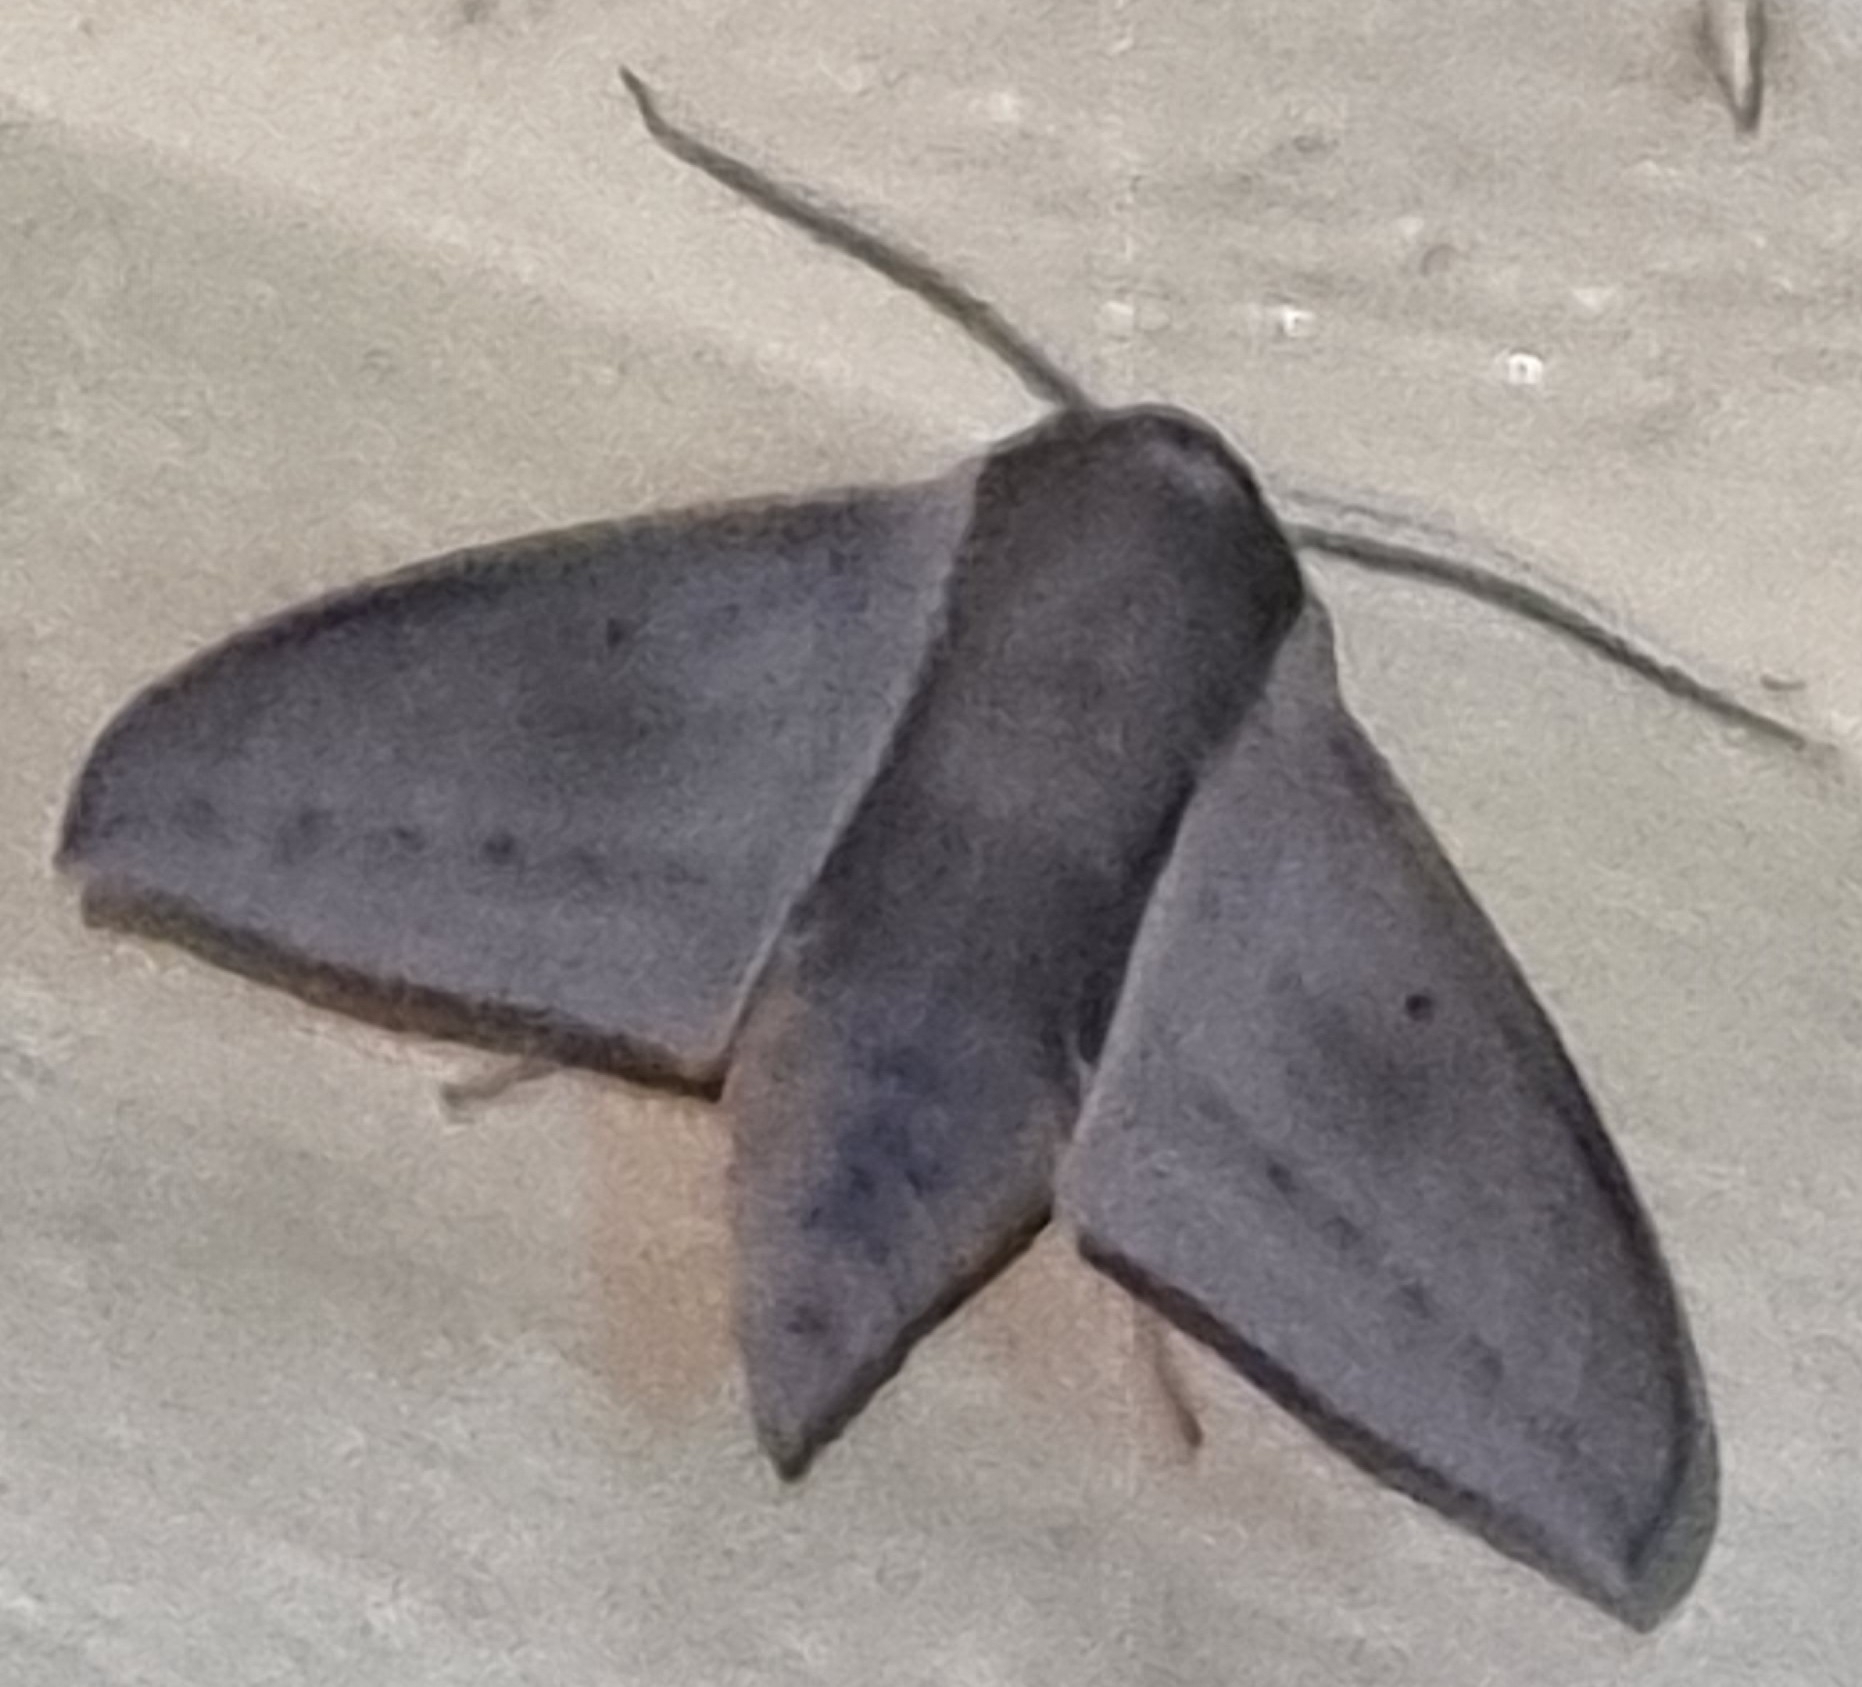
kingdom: Animalia
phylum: Arthropoda
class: Insecta
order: Lepidoptera
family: Sphingidae
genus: Theretra
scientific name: Theretra latreillii
